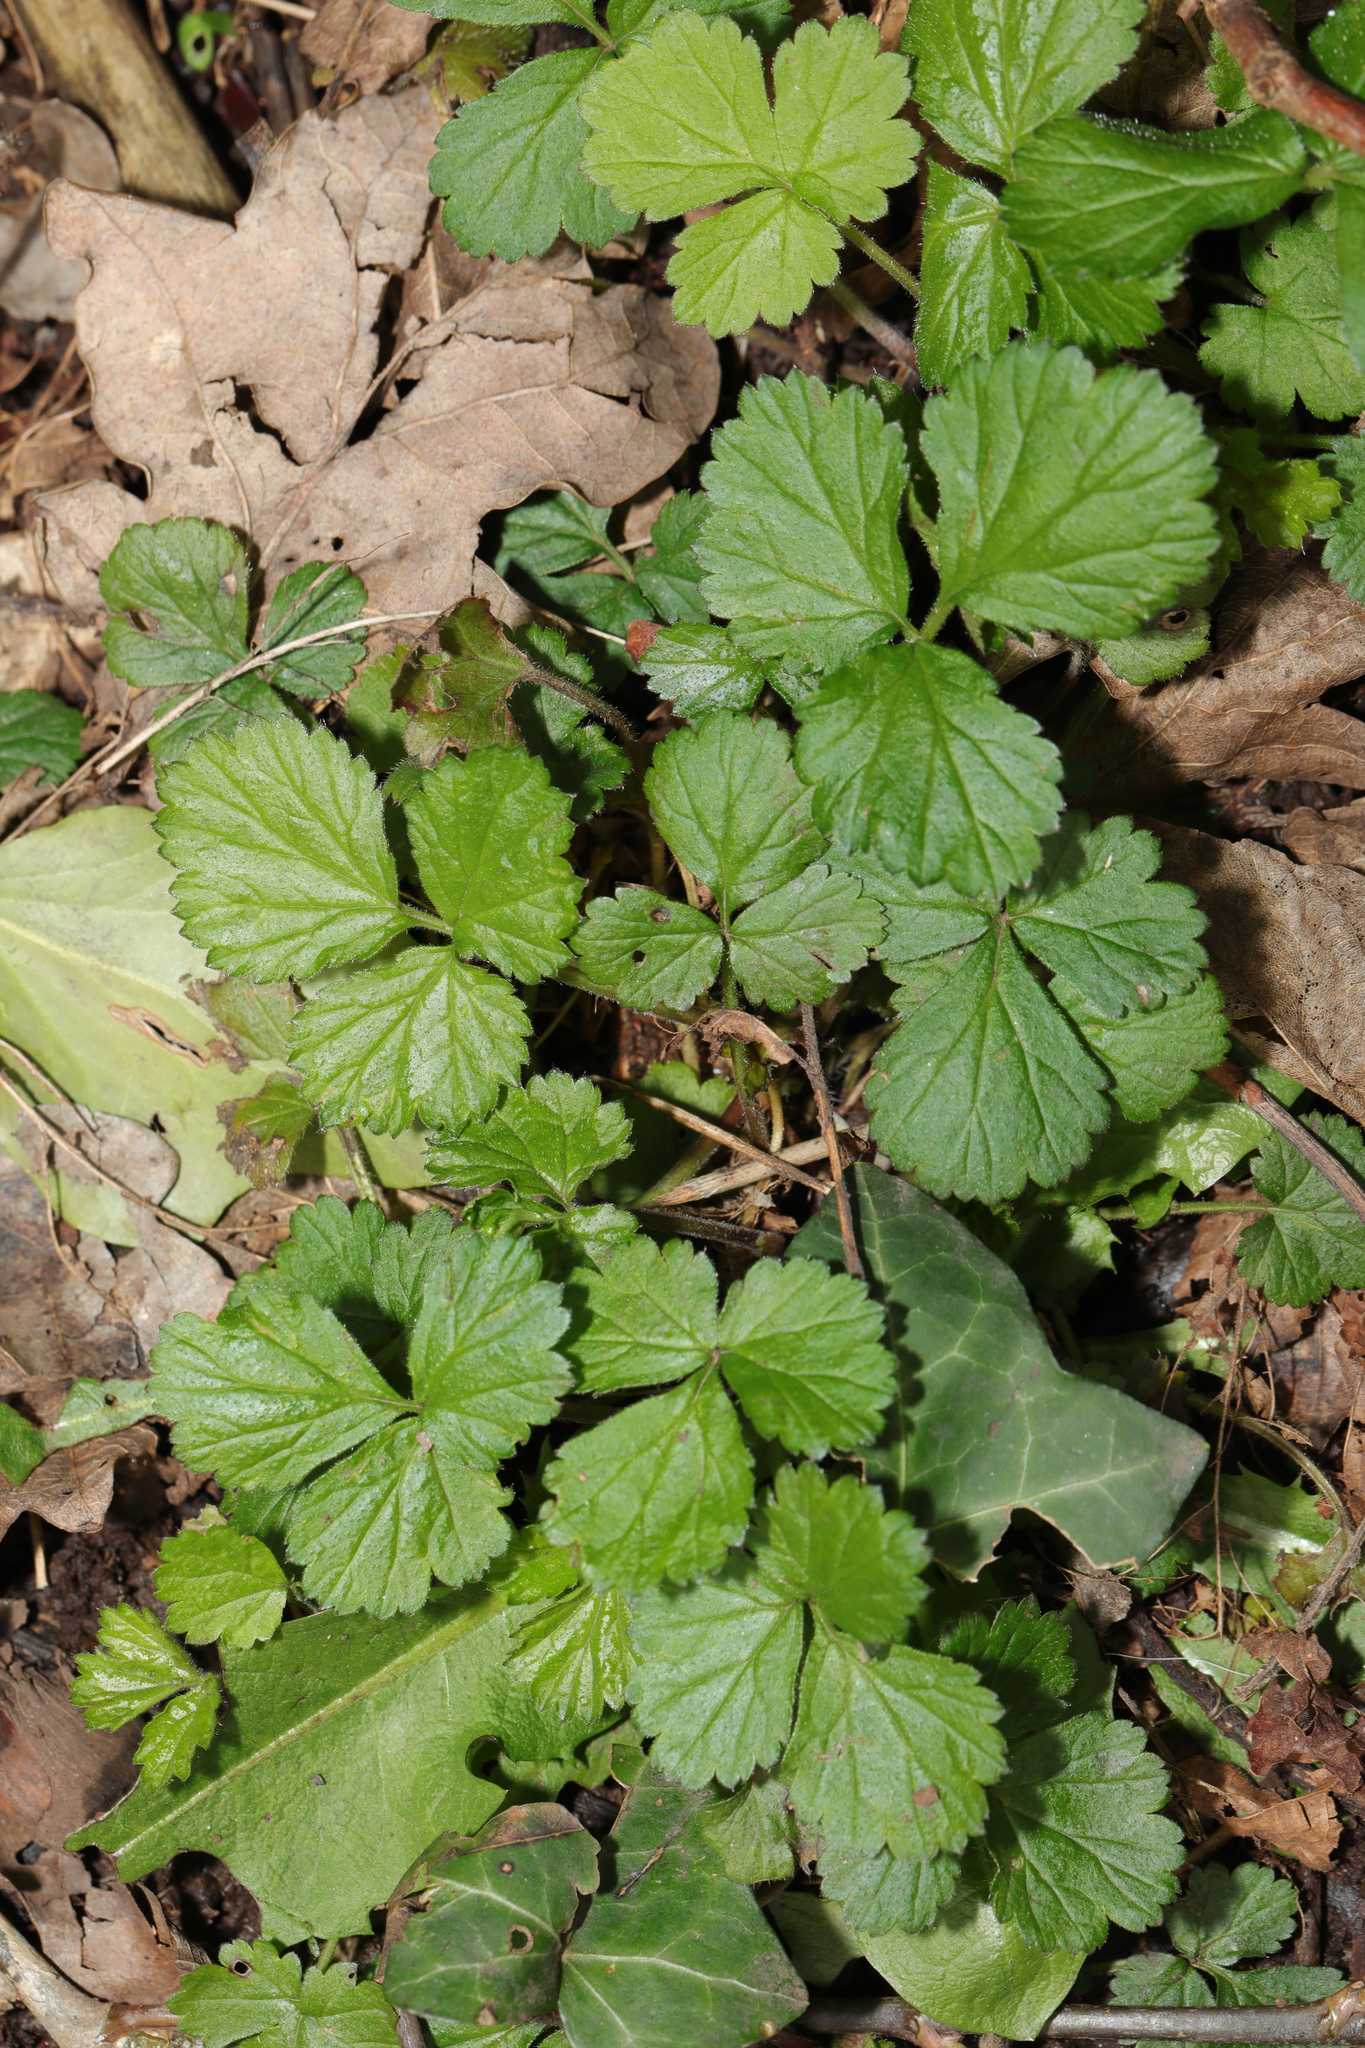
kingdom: Plantae
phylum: Tracheophyta
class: Magnoliopsida
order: Rosales
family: Rosaceae
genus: Geum
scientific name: Geum urbanum
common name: Wood avens
